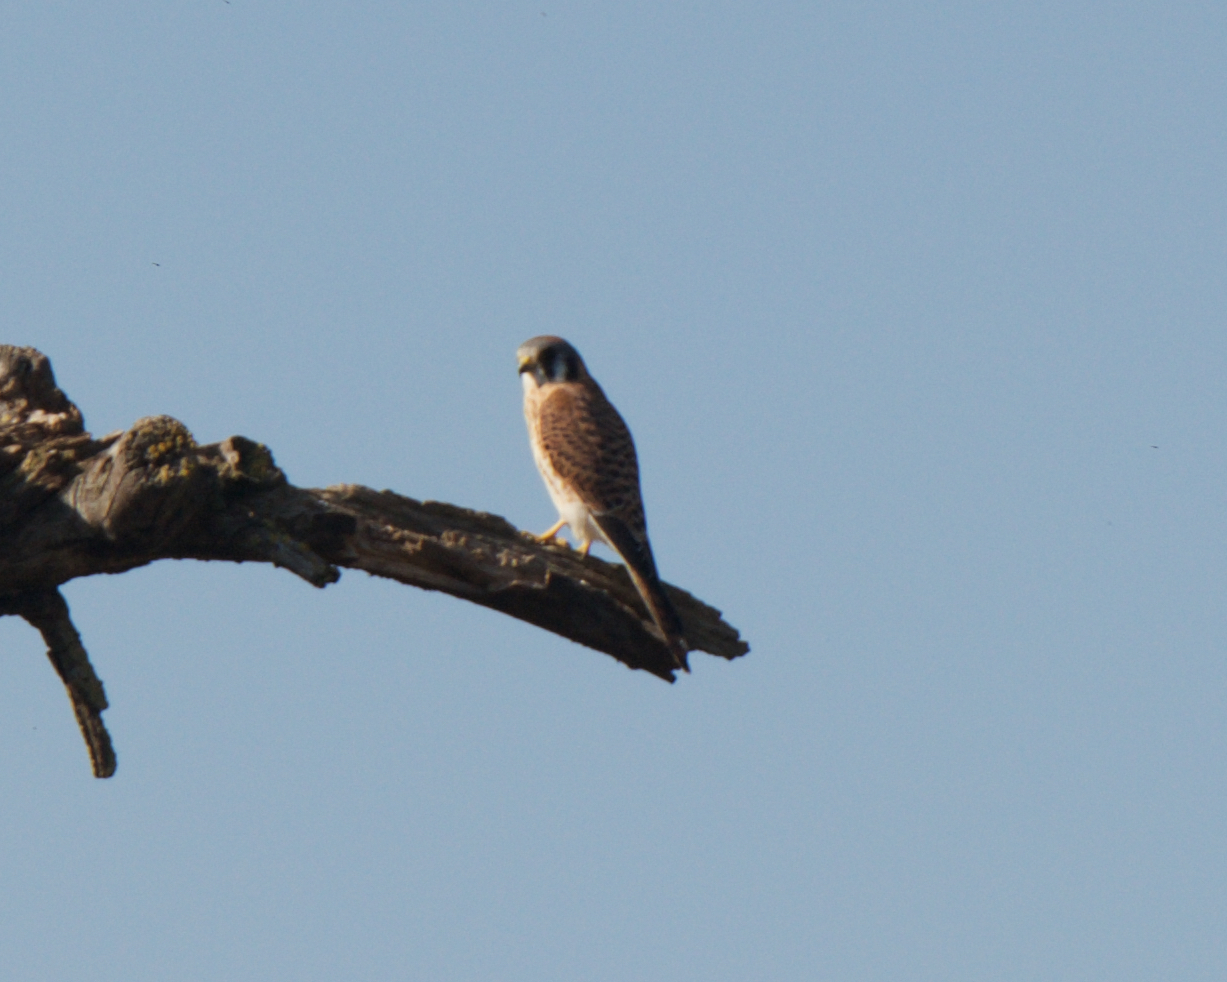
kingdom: Animalia
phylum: Chordata
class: Aves
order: Falconiformes
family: Falconidae
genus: Falco
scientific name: Falco sparverius
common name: American kestrel
